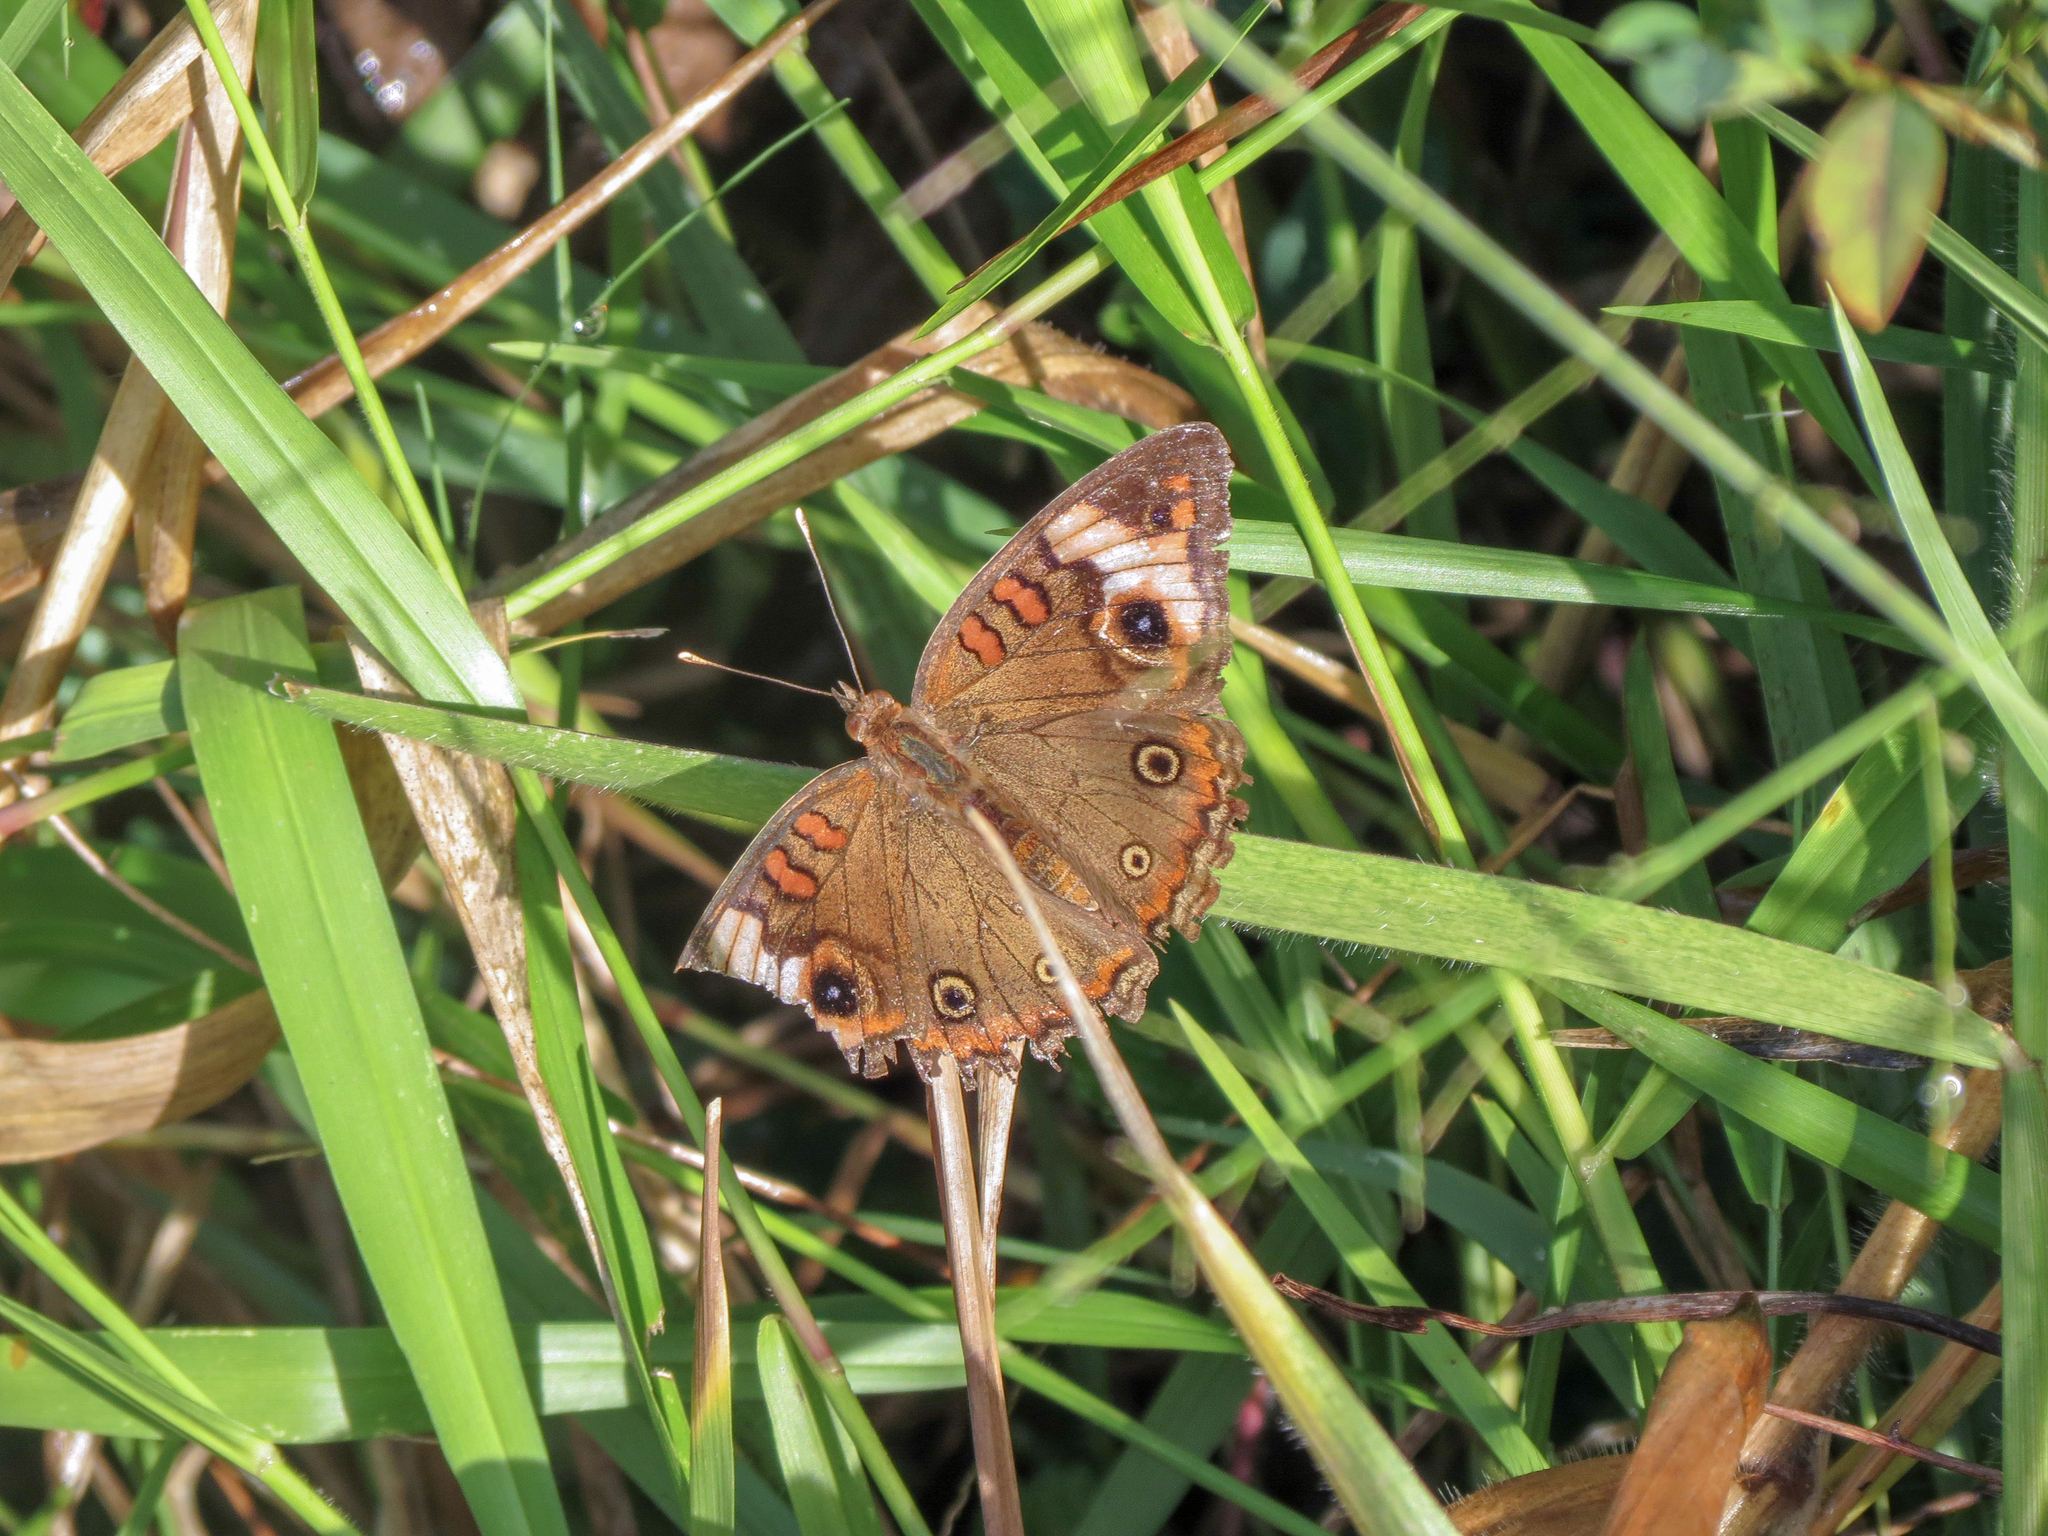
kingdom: Animalia
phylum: Arthropoda
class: Insecta
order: Lepidoptera
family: Nymphalidae
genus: Junonia
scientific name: Junonia lavinia
